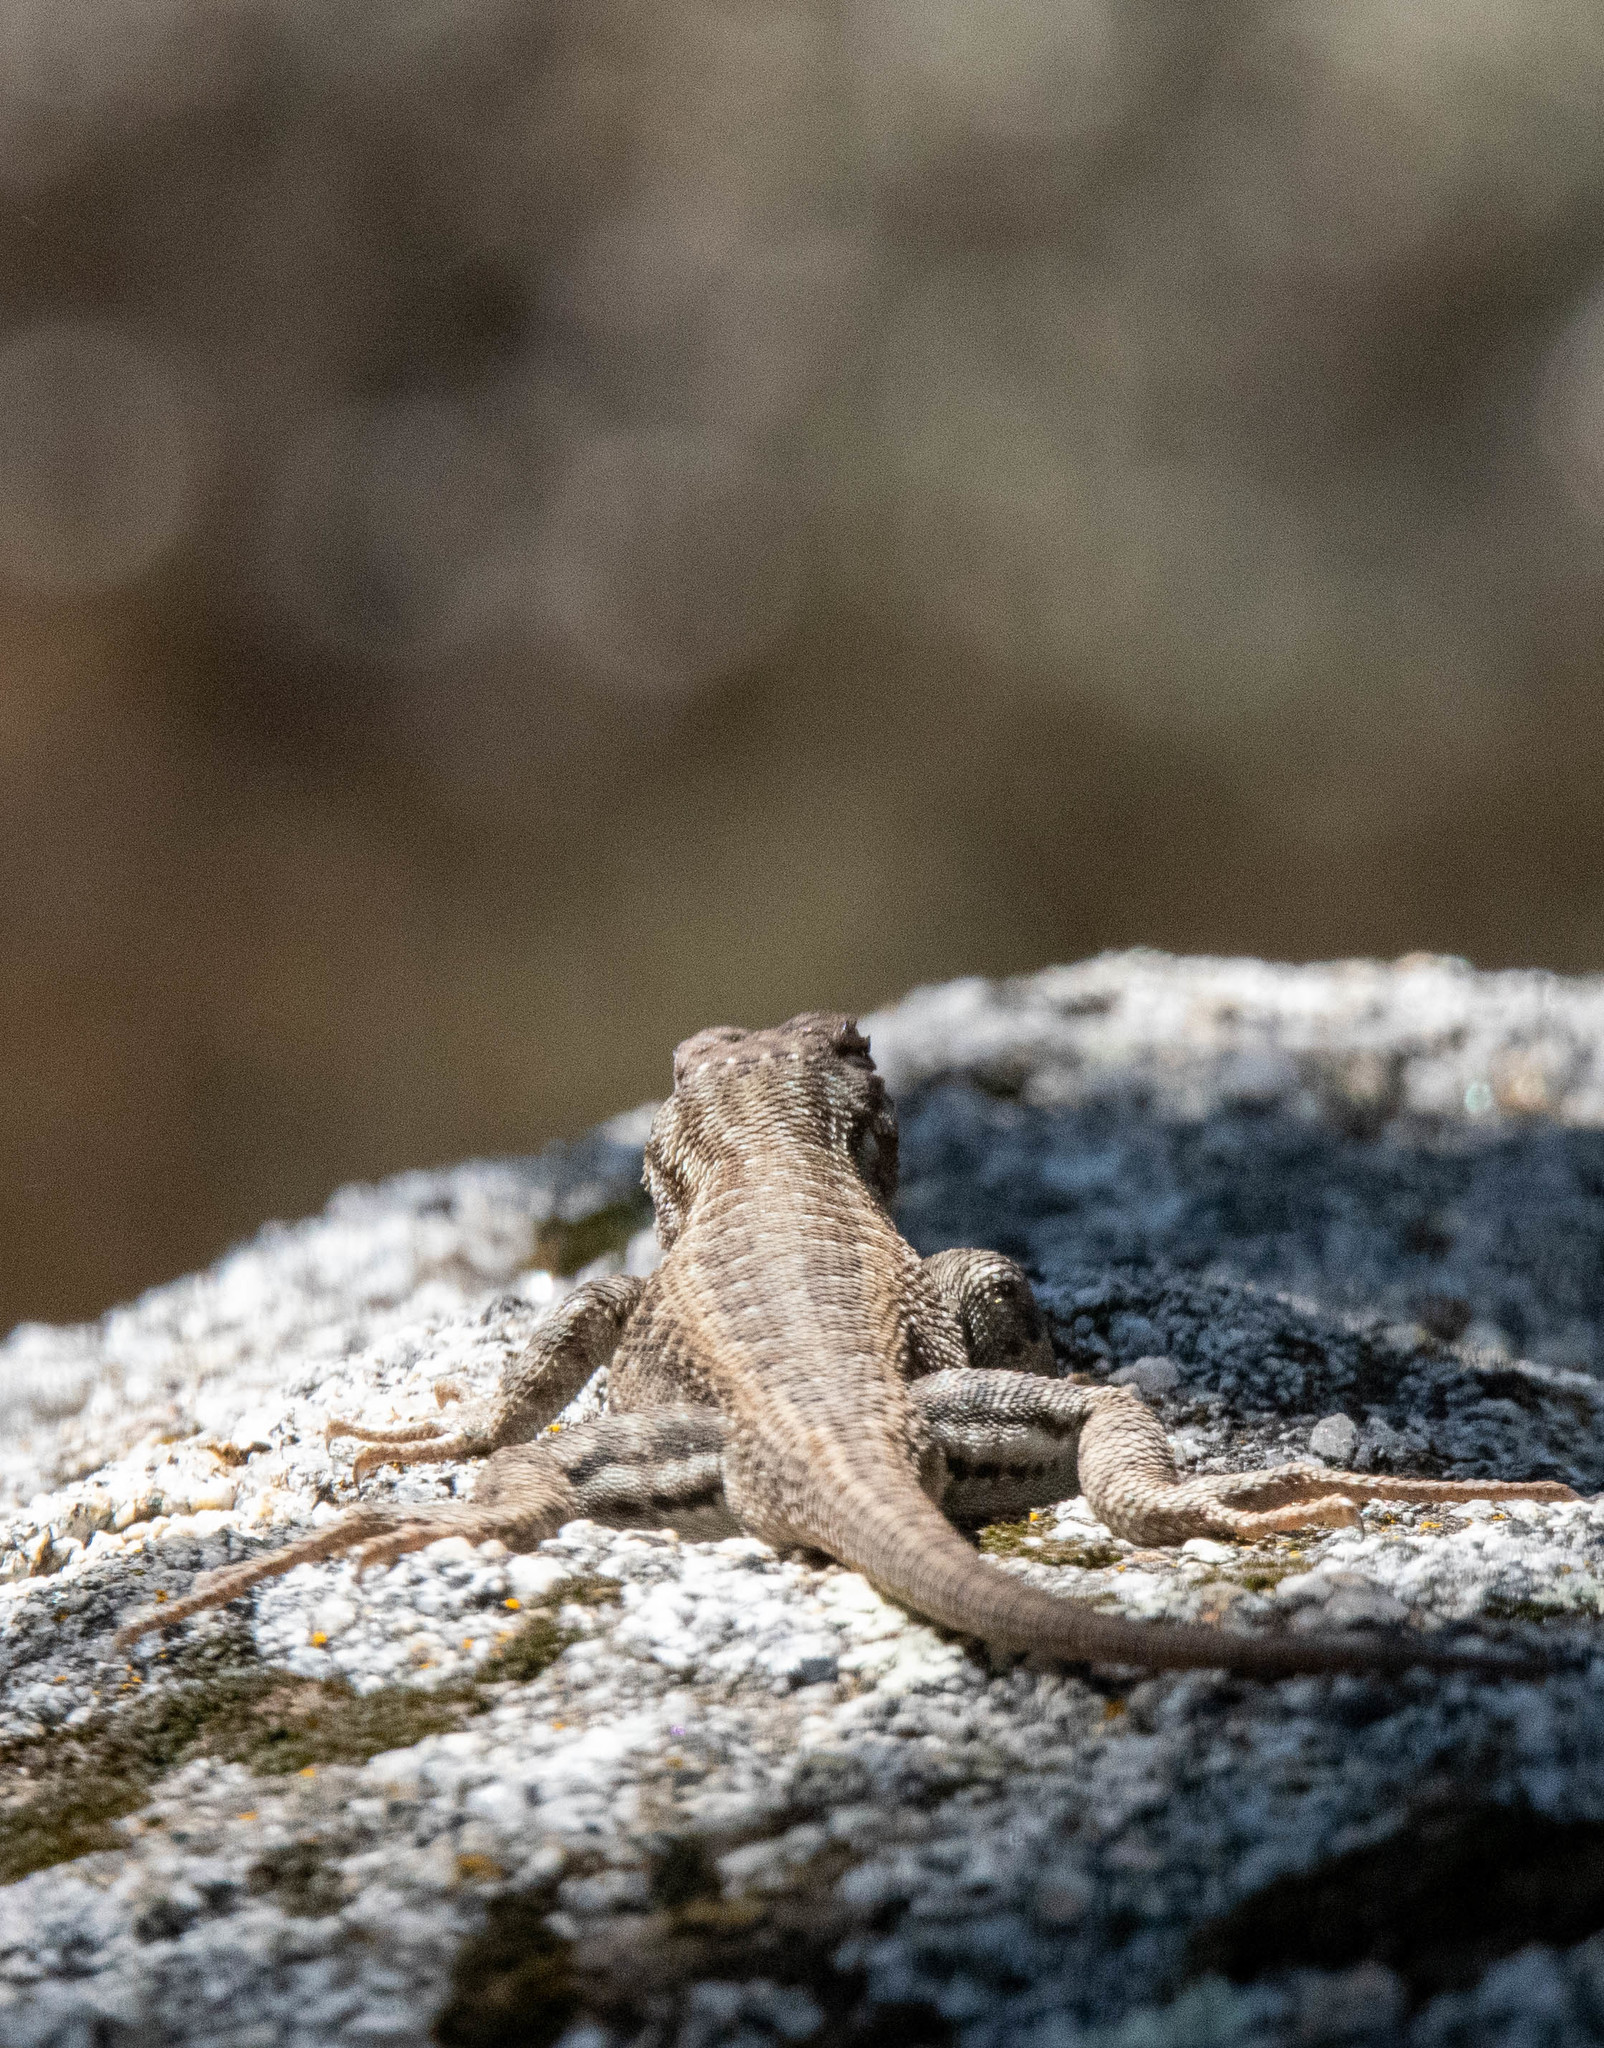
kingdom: Animalia
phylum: Chordata
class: Squamata
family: Phrynosomatidae
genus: Sceloporus
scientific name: Sceloporus graciosus
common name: Sagebrush lizard
